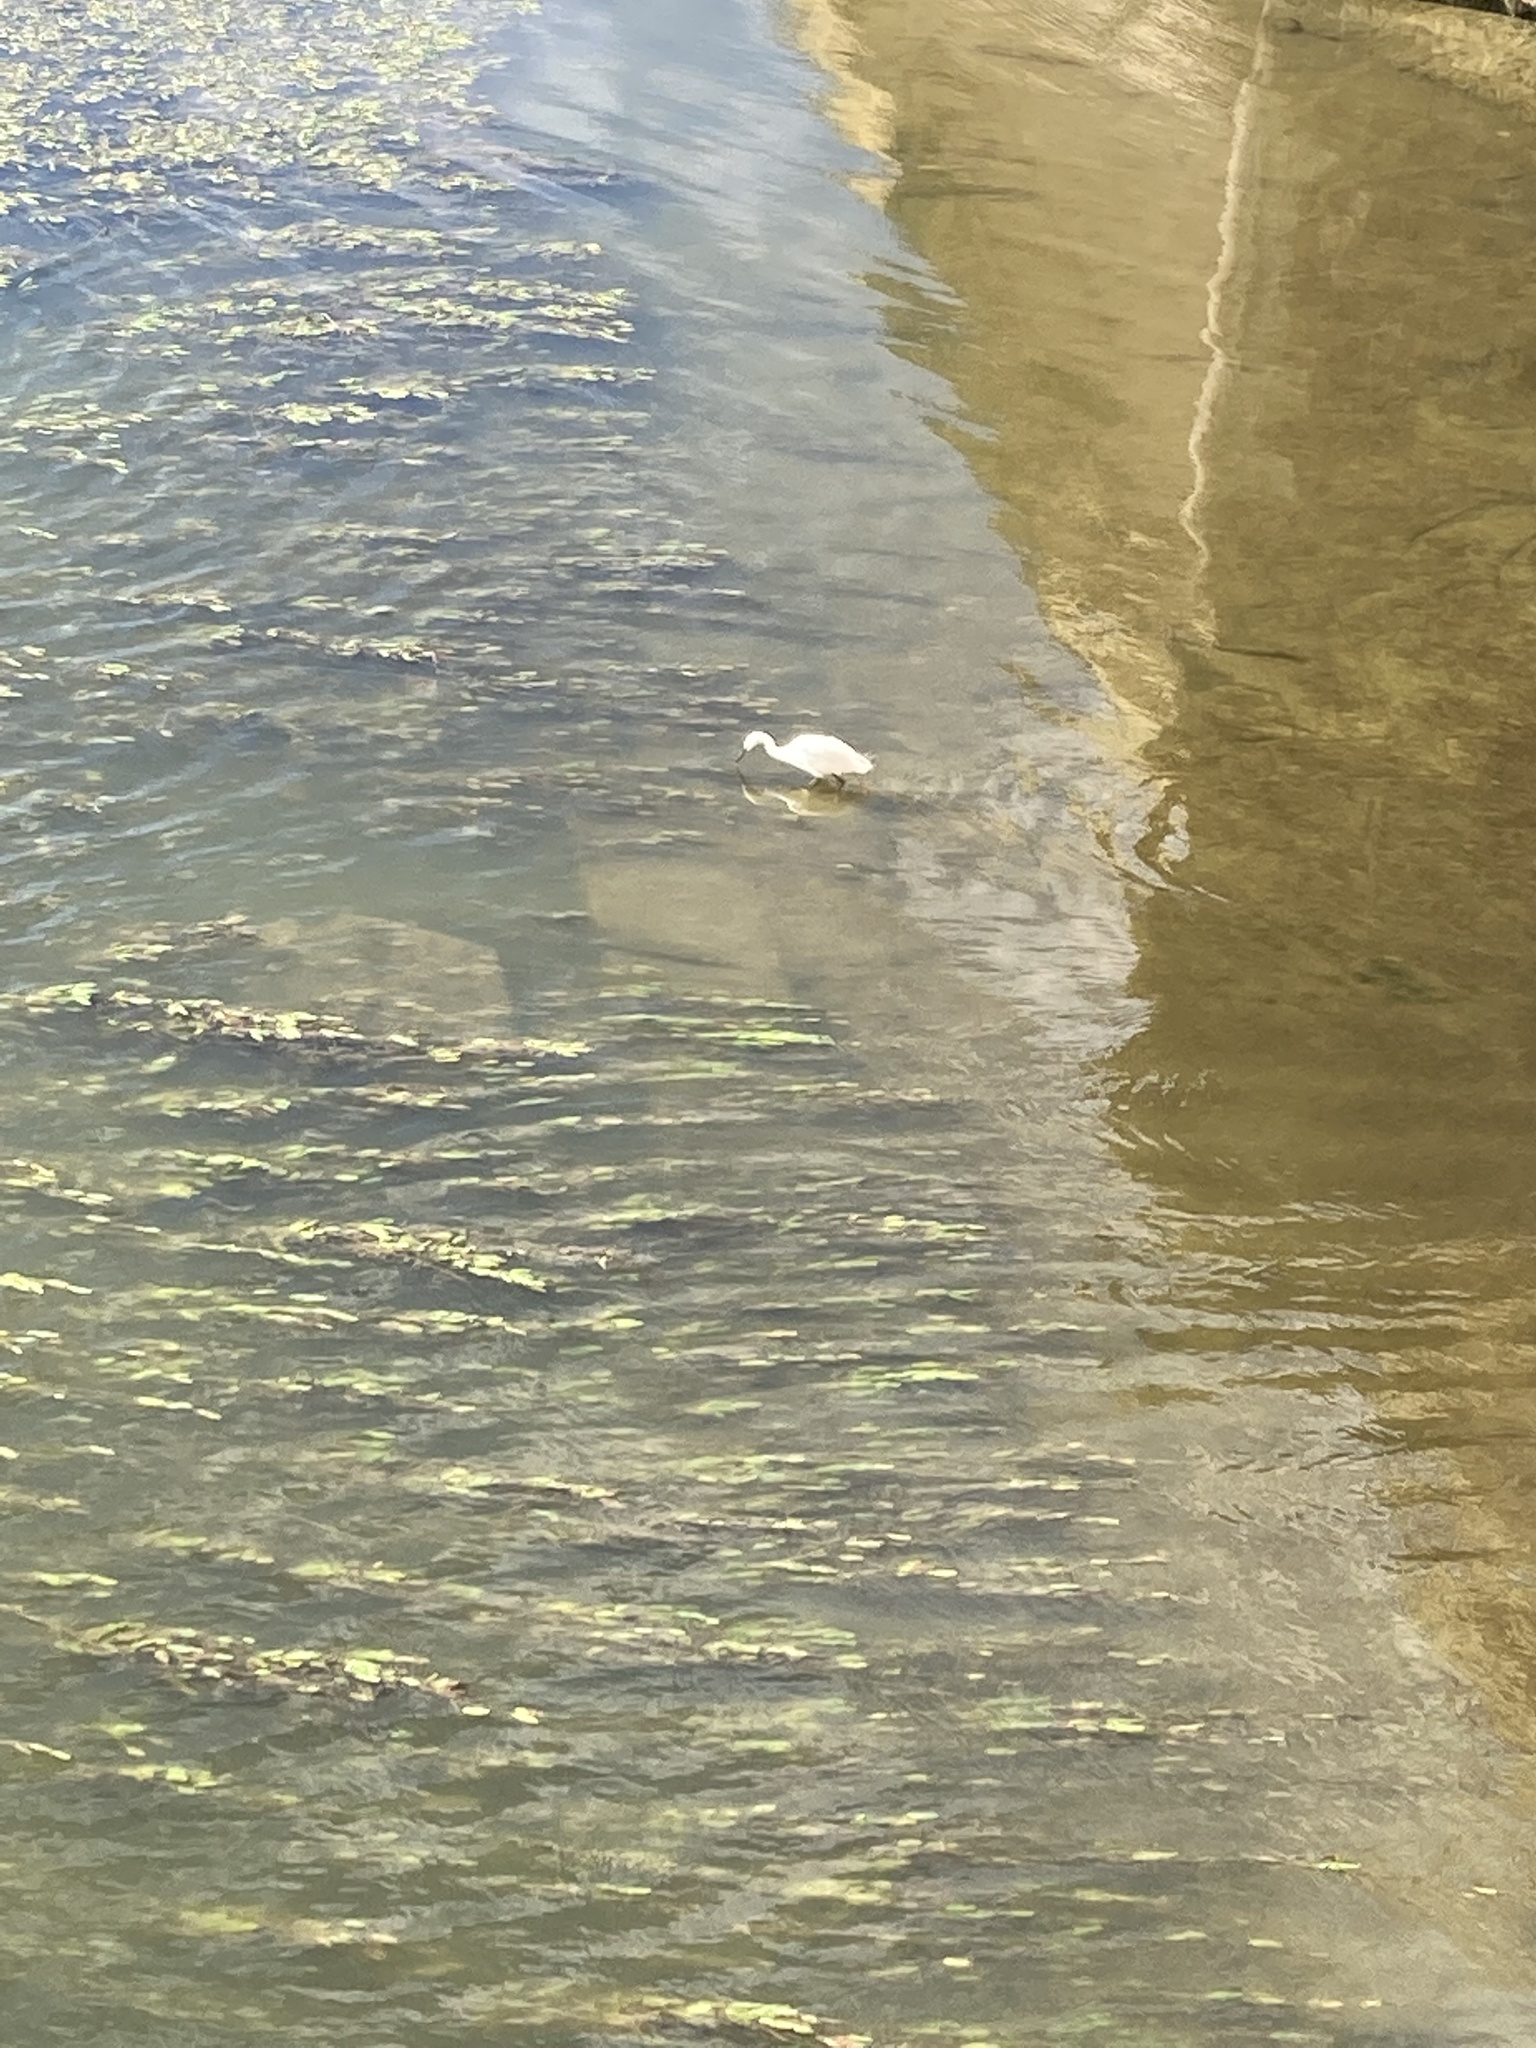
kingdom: Animalia
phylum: Chordata
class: Aves
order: Pelecaniformes
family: Ardeidae
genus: Egretta
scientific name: Egretta garzetta
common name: Little egret
